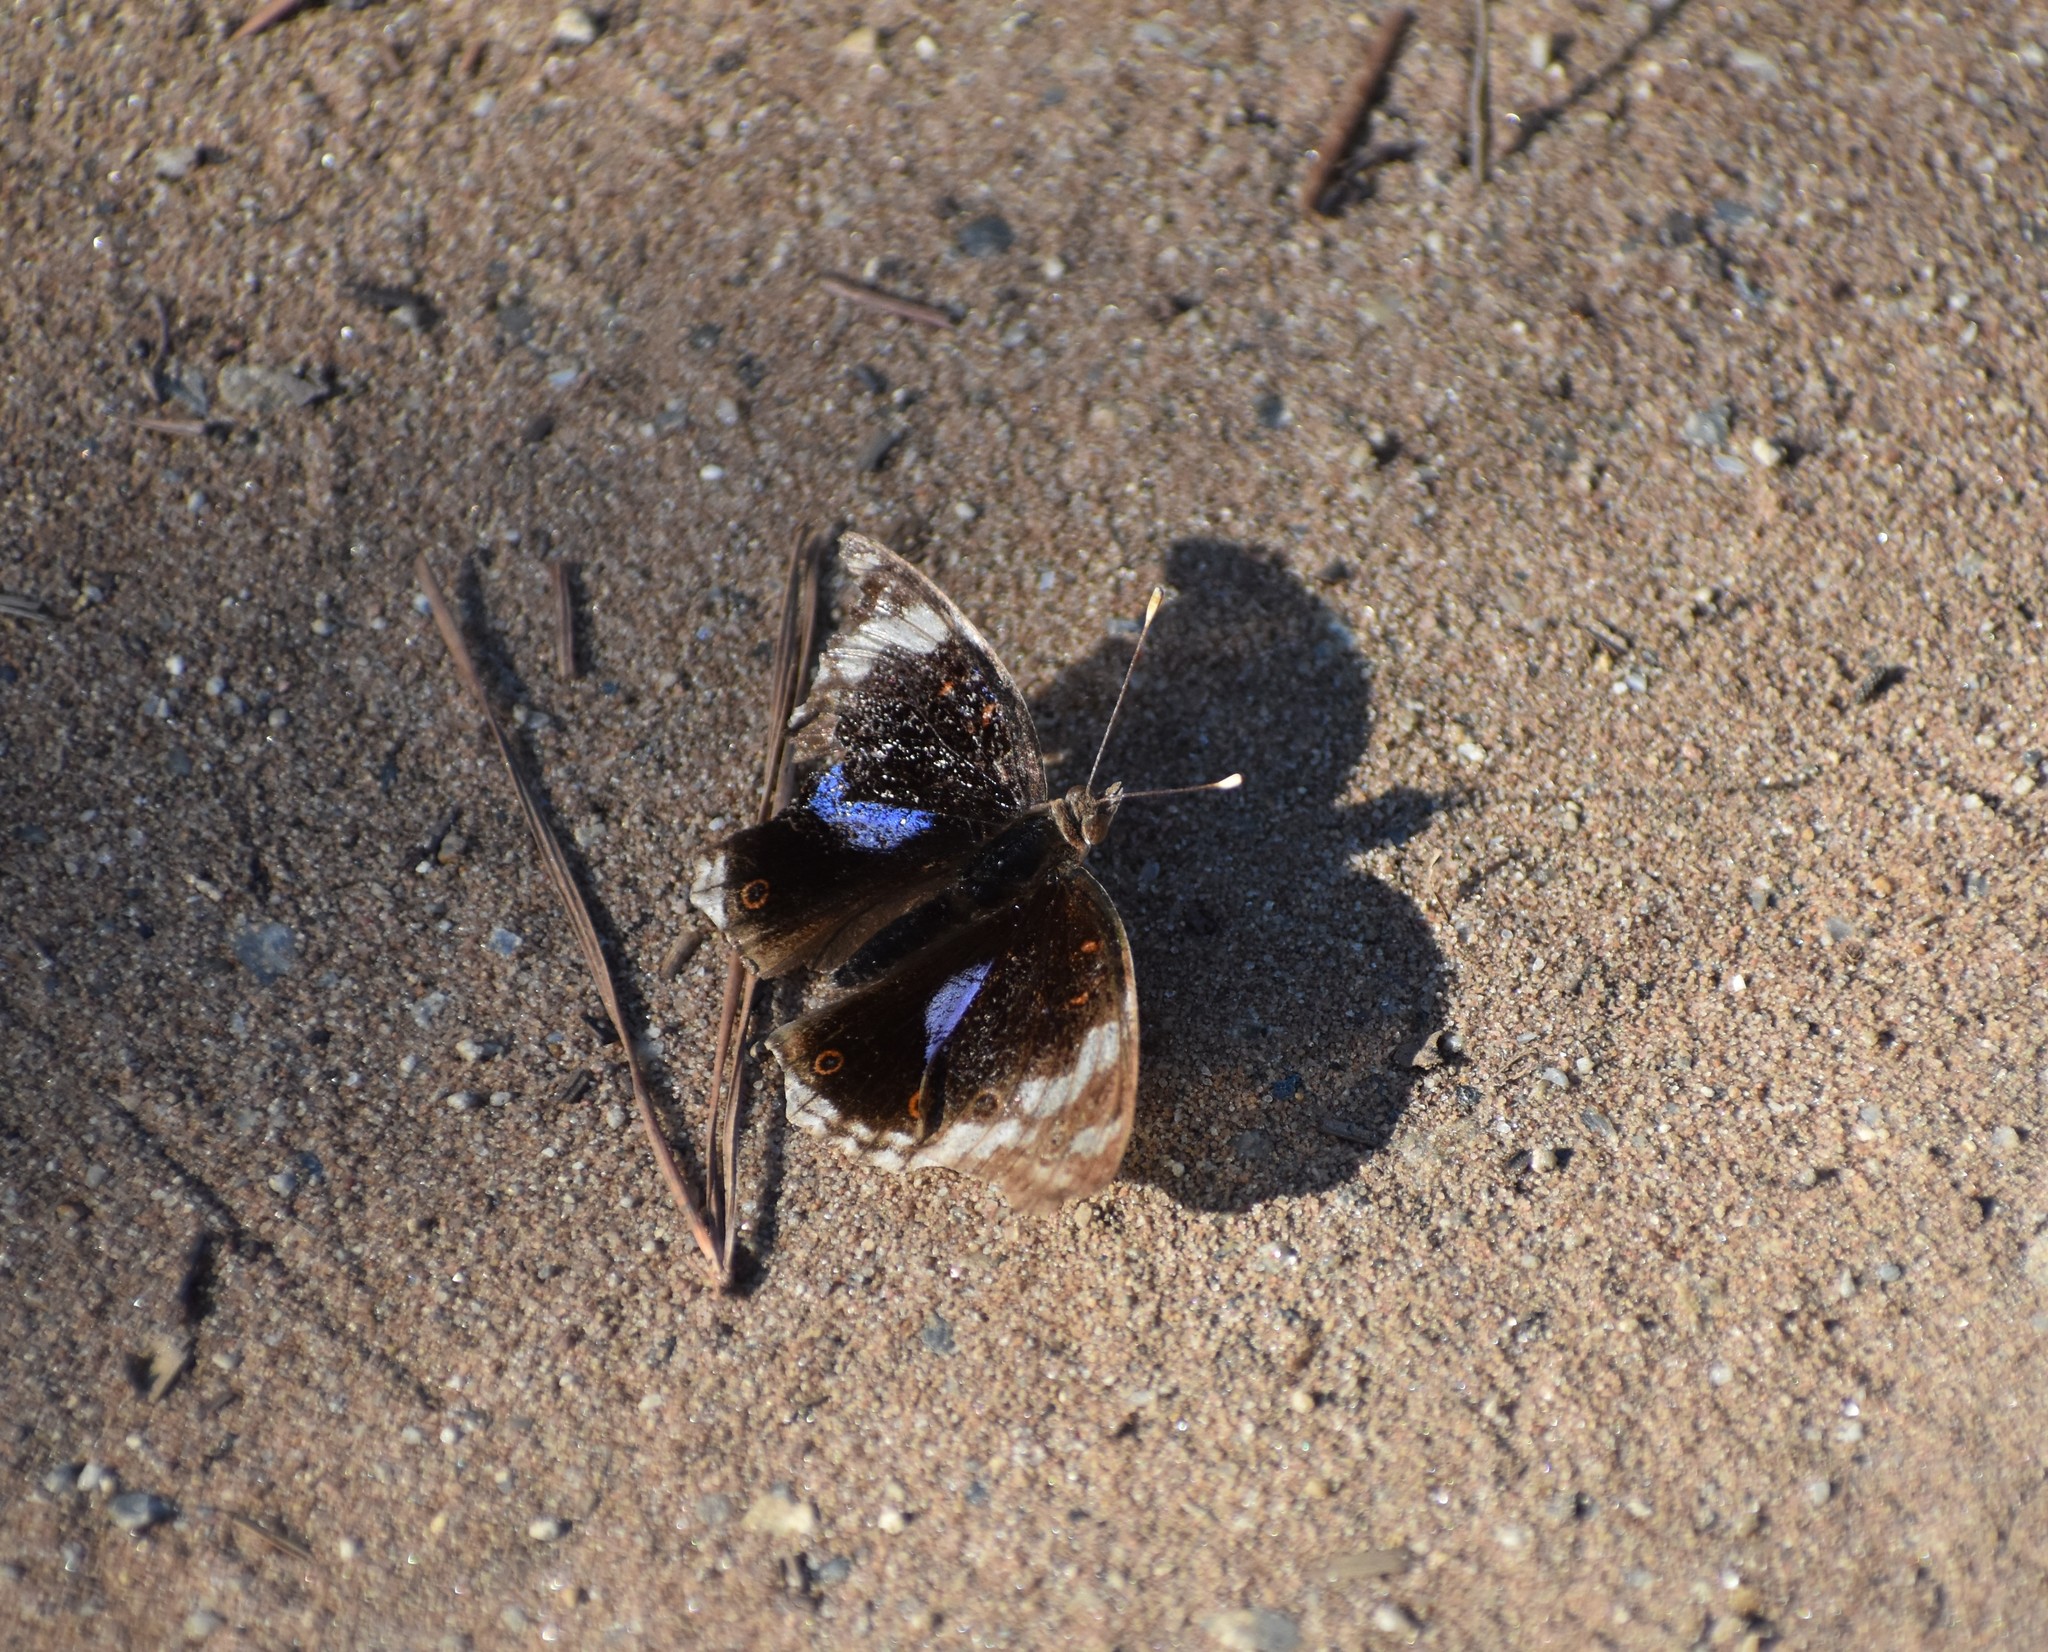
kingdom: Animalia
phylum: Arthropoda
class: Insecta
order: Lepidoptera
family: Nymphalidae
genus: Junonia
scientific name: Junonia oenone
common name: Dark blue pansy
